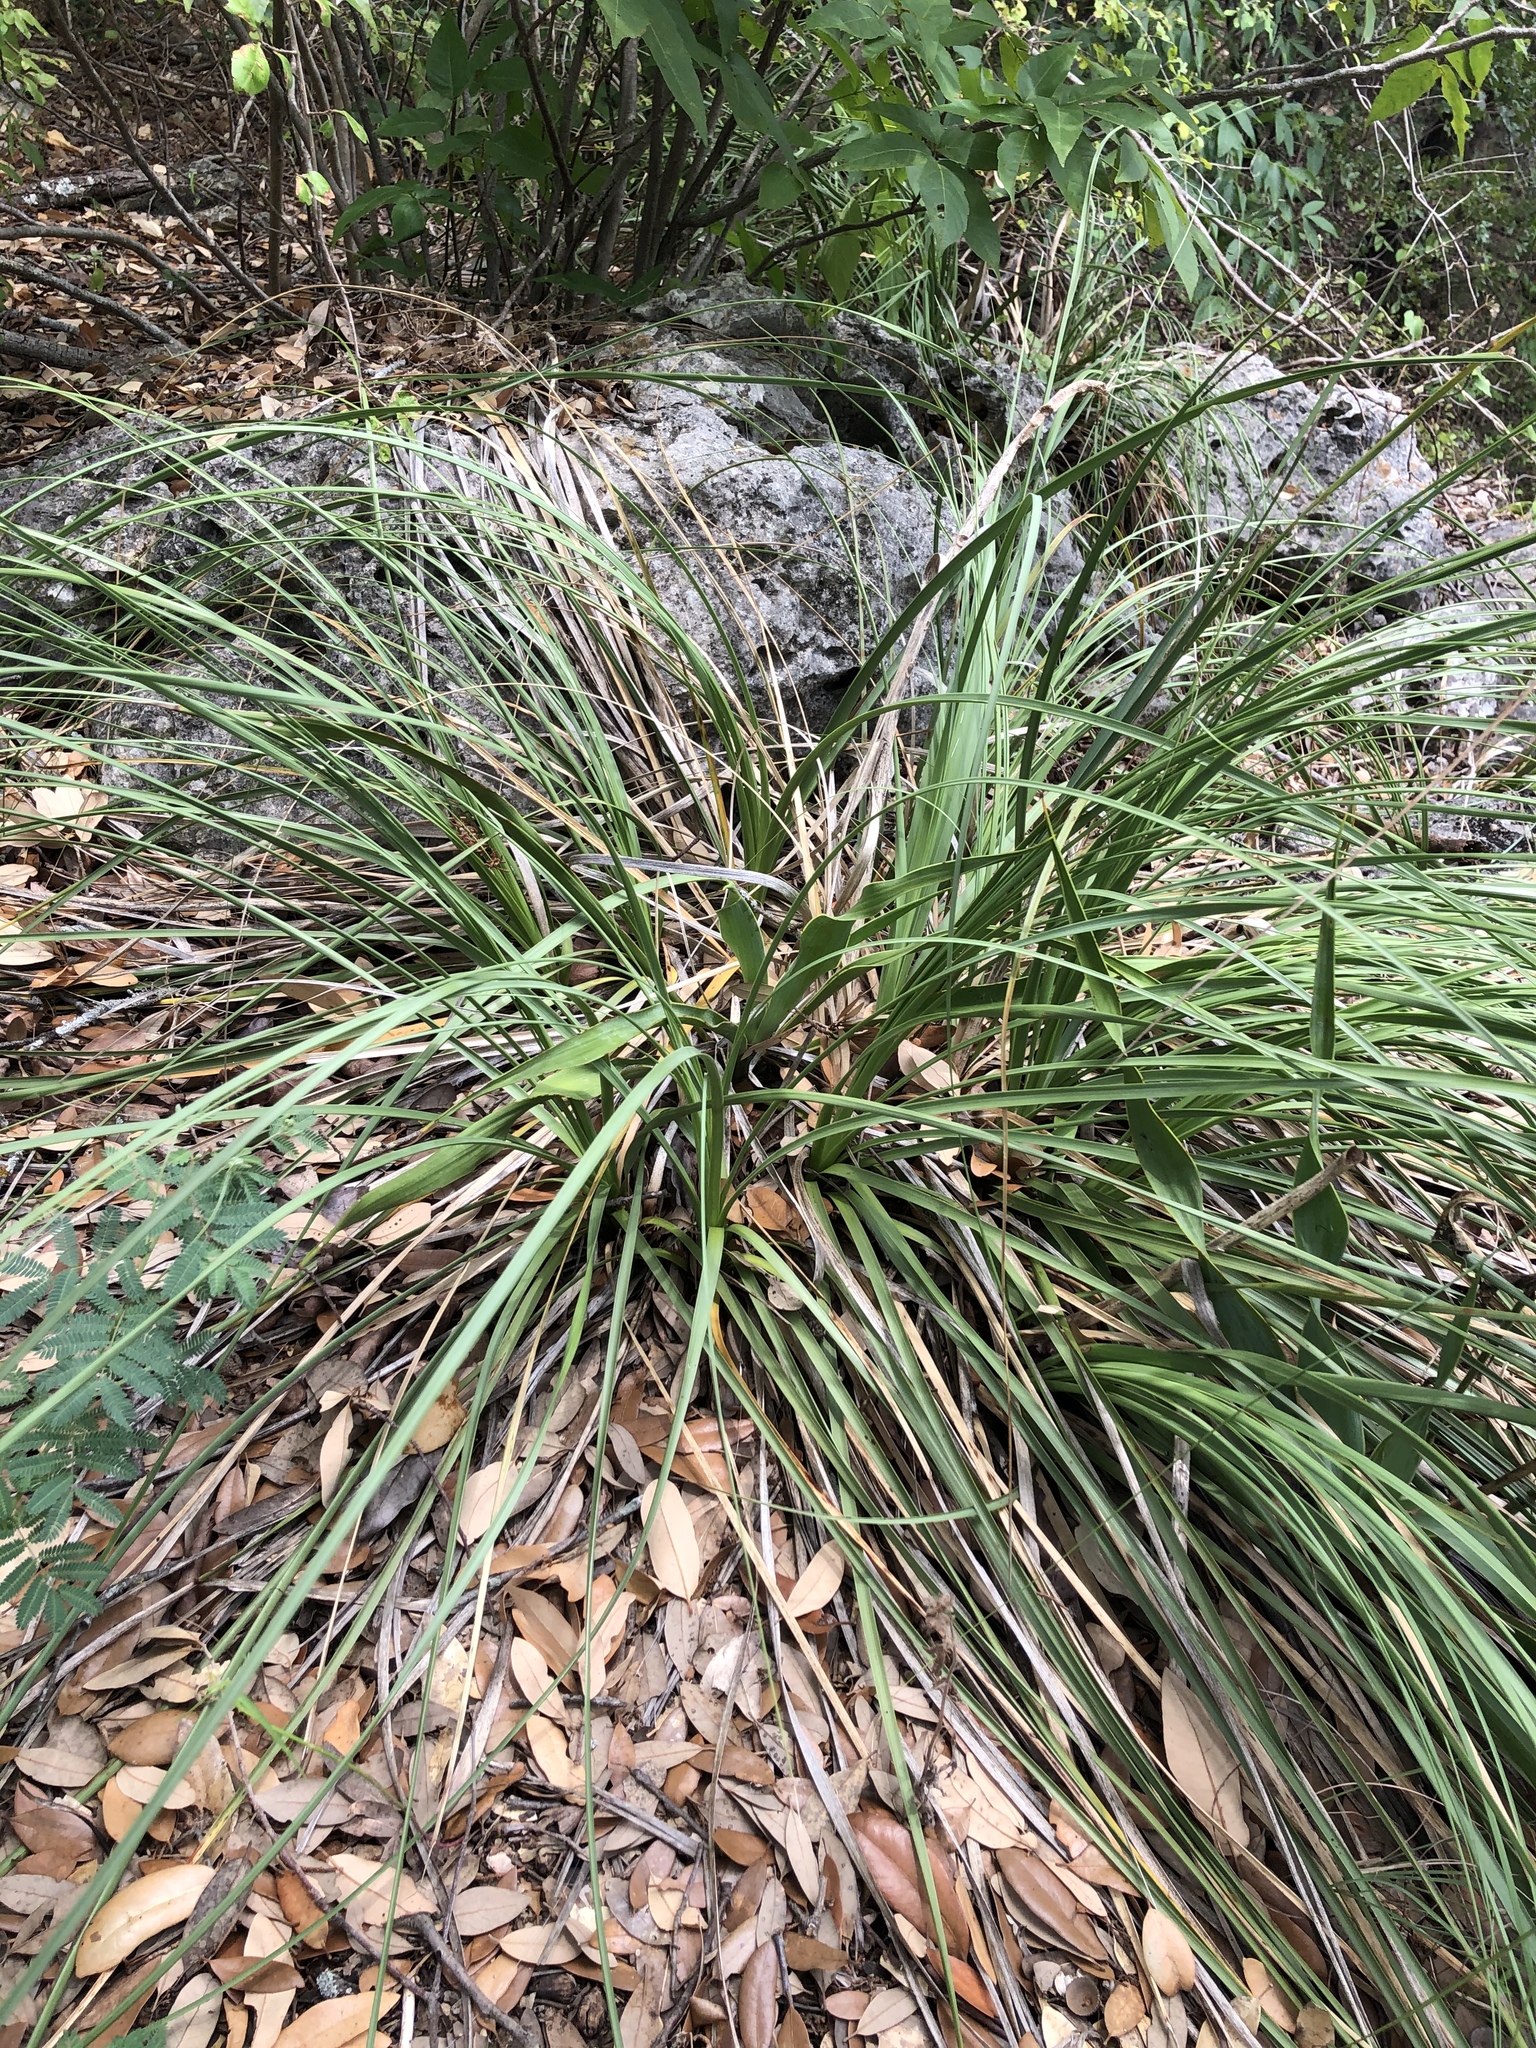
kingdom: Plantae
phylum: Tracheophyta
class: Liliopsida
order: Asparagales
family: Asparagaceae
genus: Nolina
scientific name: Nolina lindheimeriana
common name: Lindheimer's bear-grass
